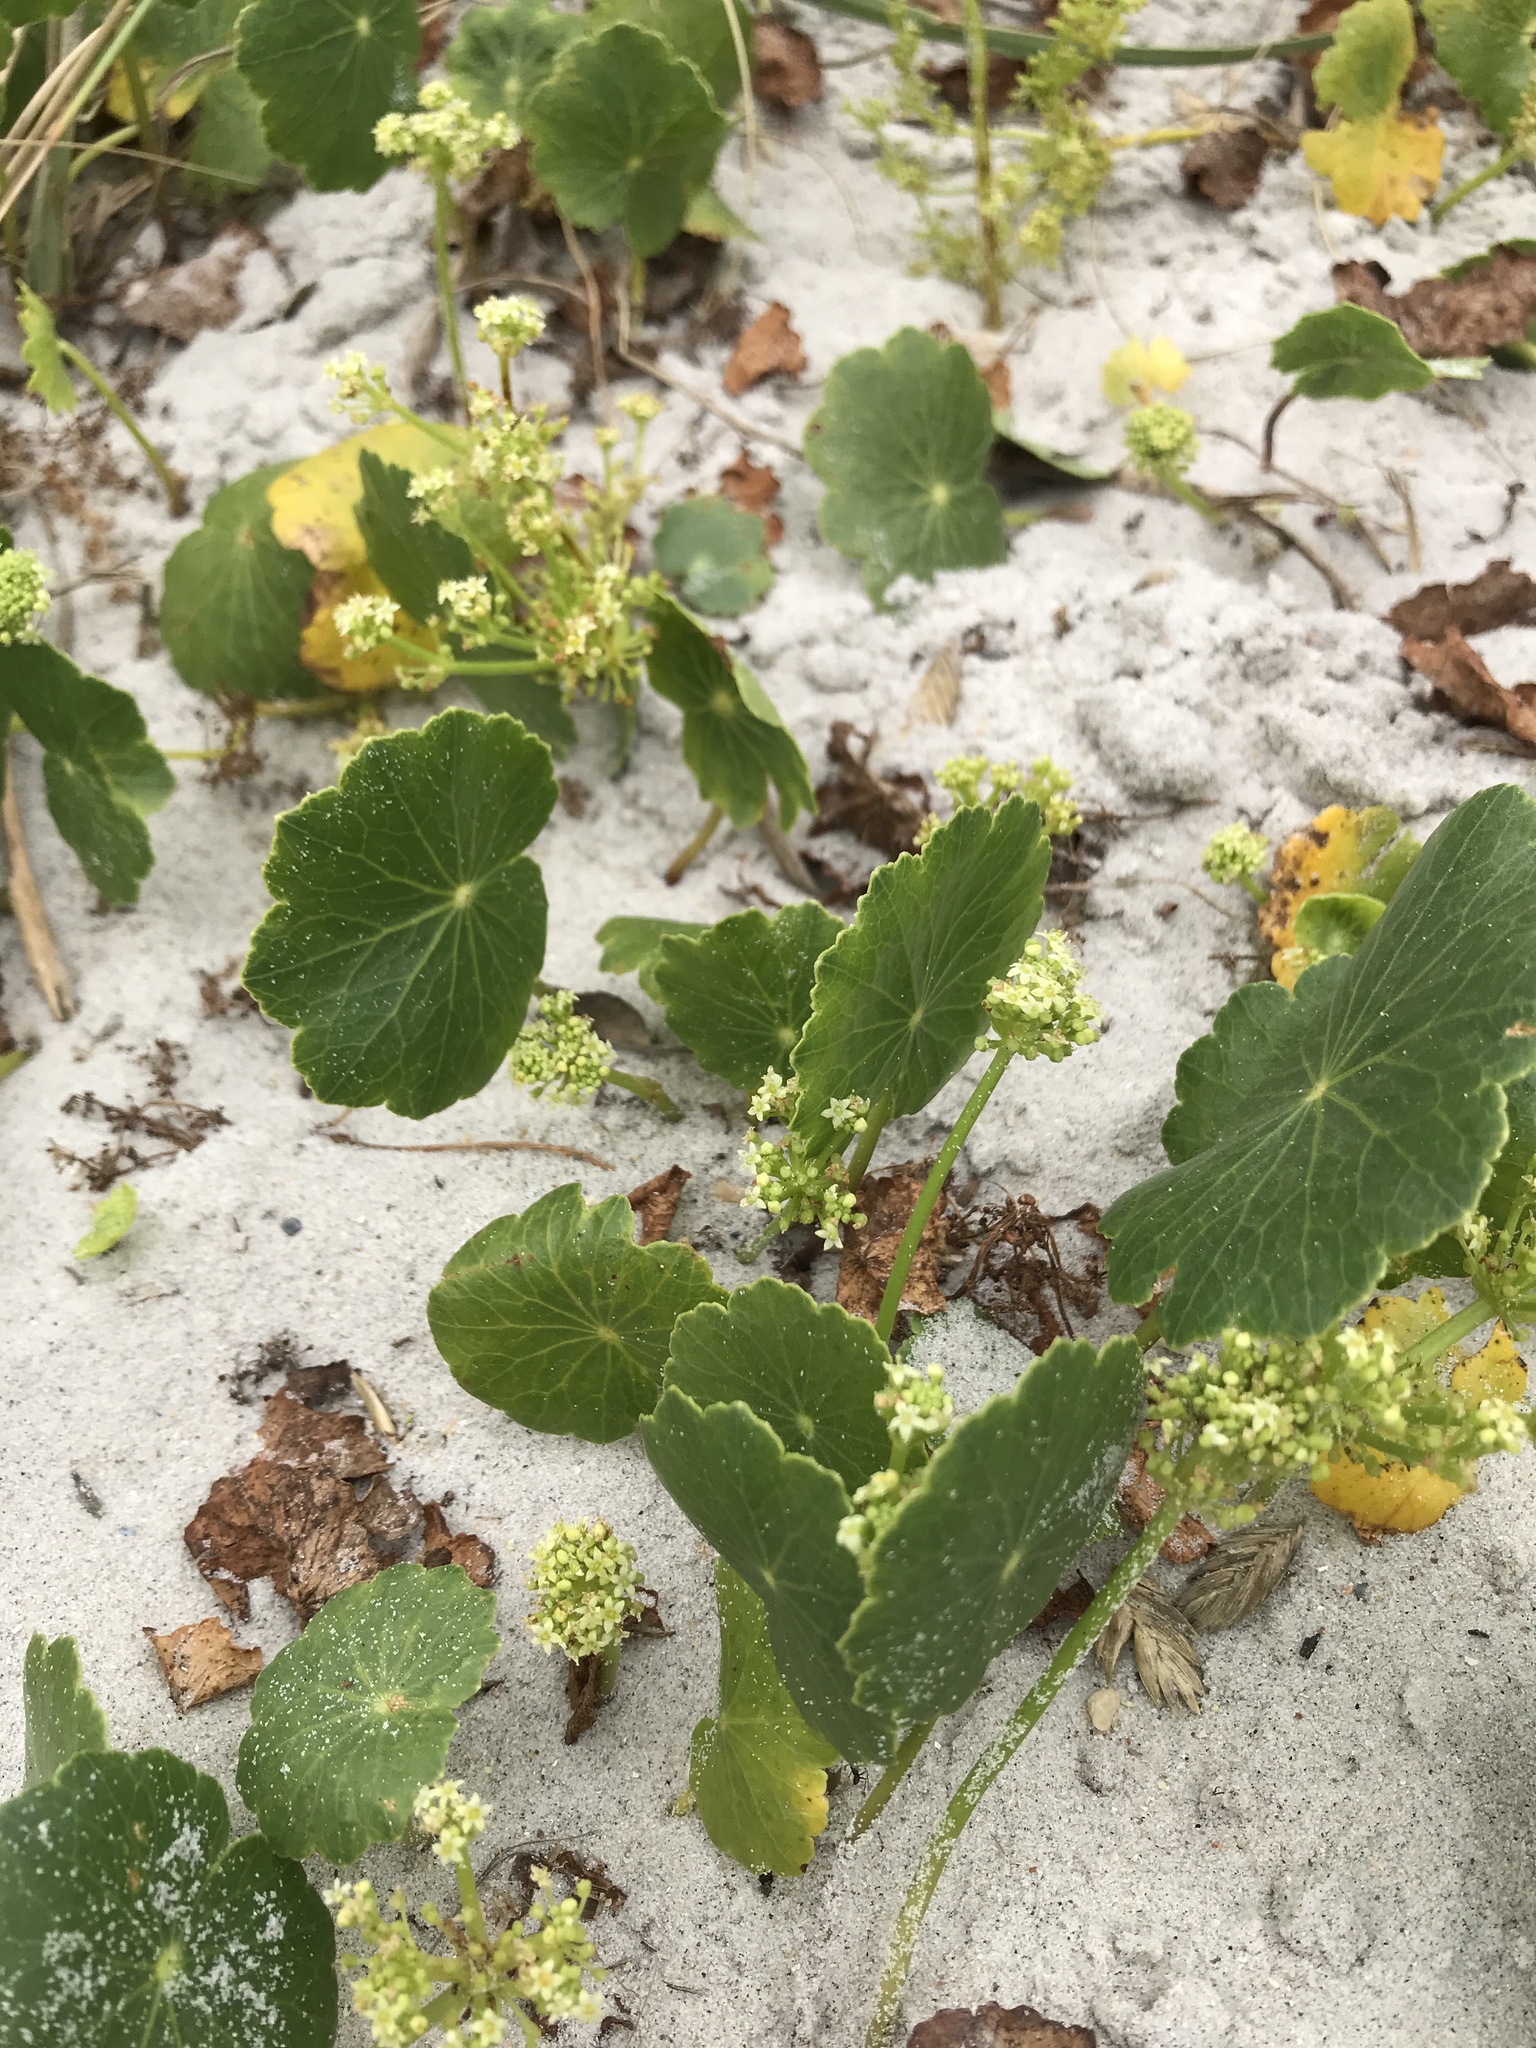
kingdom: Plantae
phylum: Tracheophyta
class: Magnoliopsida
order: Apiales
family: Araliaceae
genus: Hydrocotyle
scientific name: Hydrocotyle bonariensis
